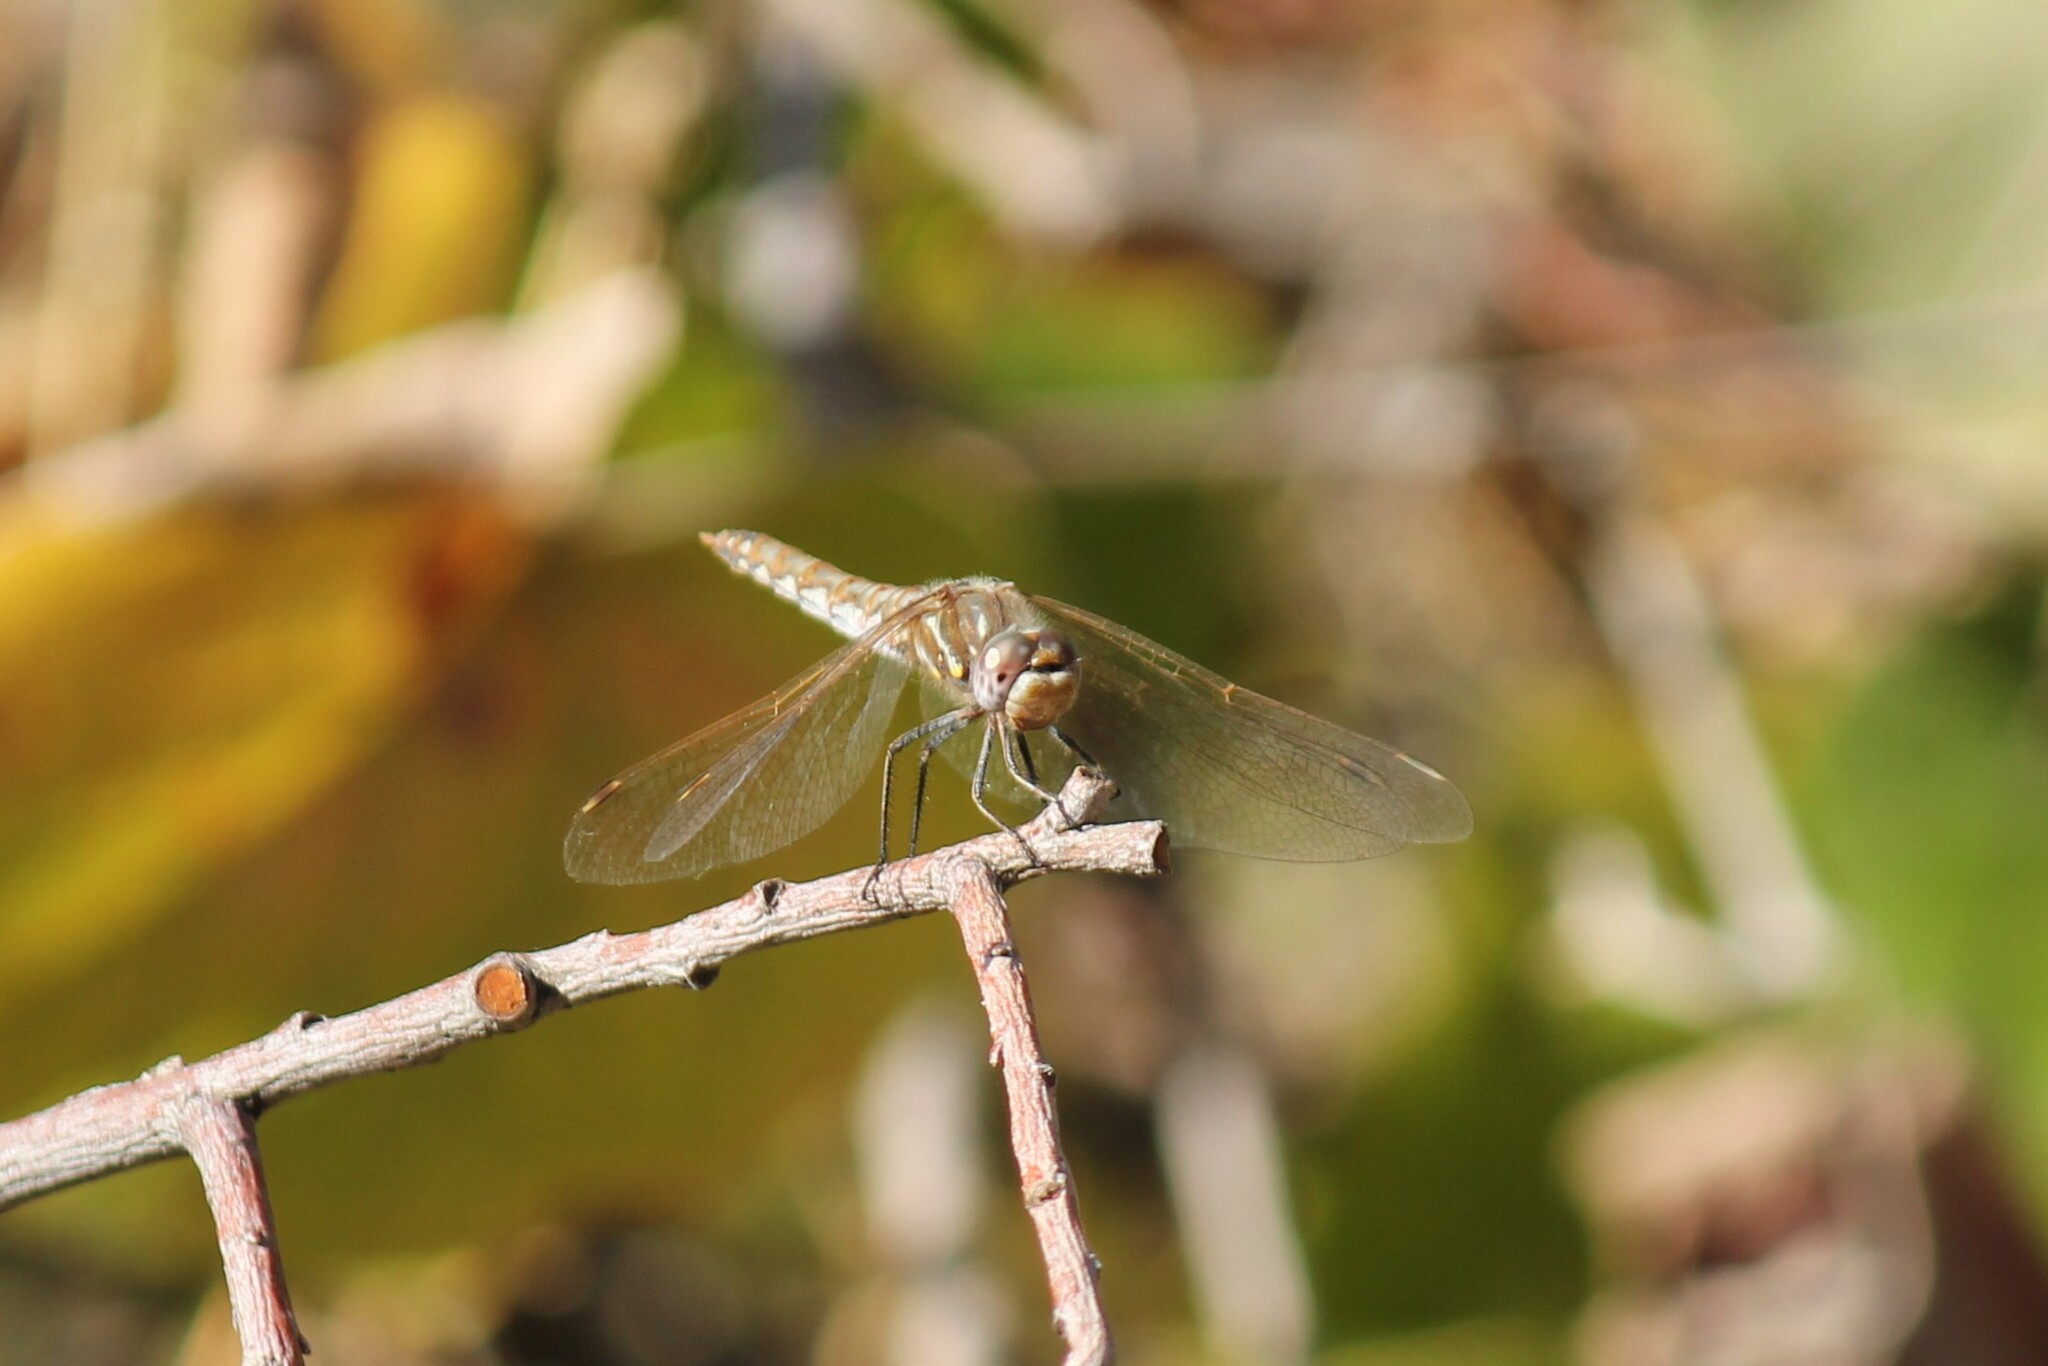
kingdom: Animalia
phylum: Arthropoda
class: Insecta
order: Odonata
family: Libellulidae
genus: Sympetrum
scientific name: Sympetrum corruptum
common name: Variegated meadowhawk
